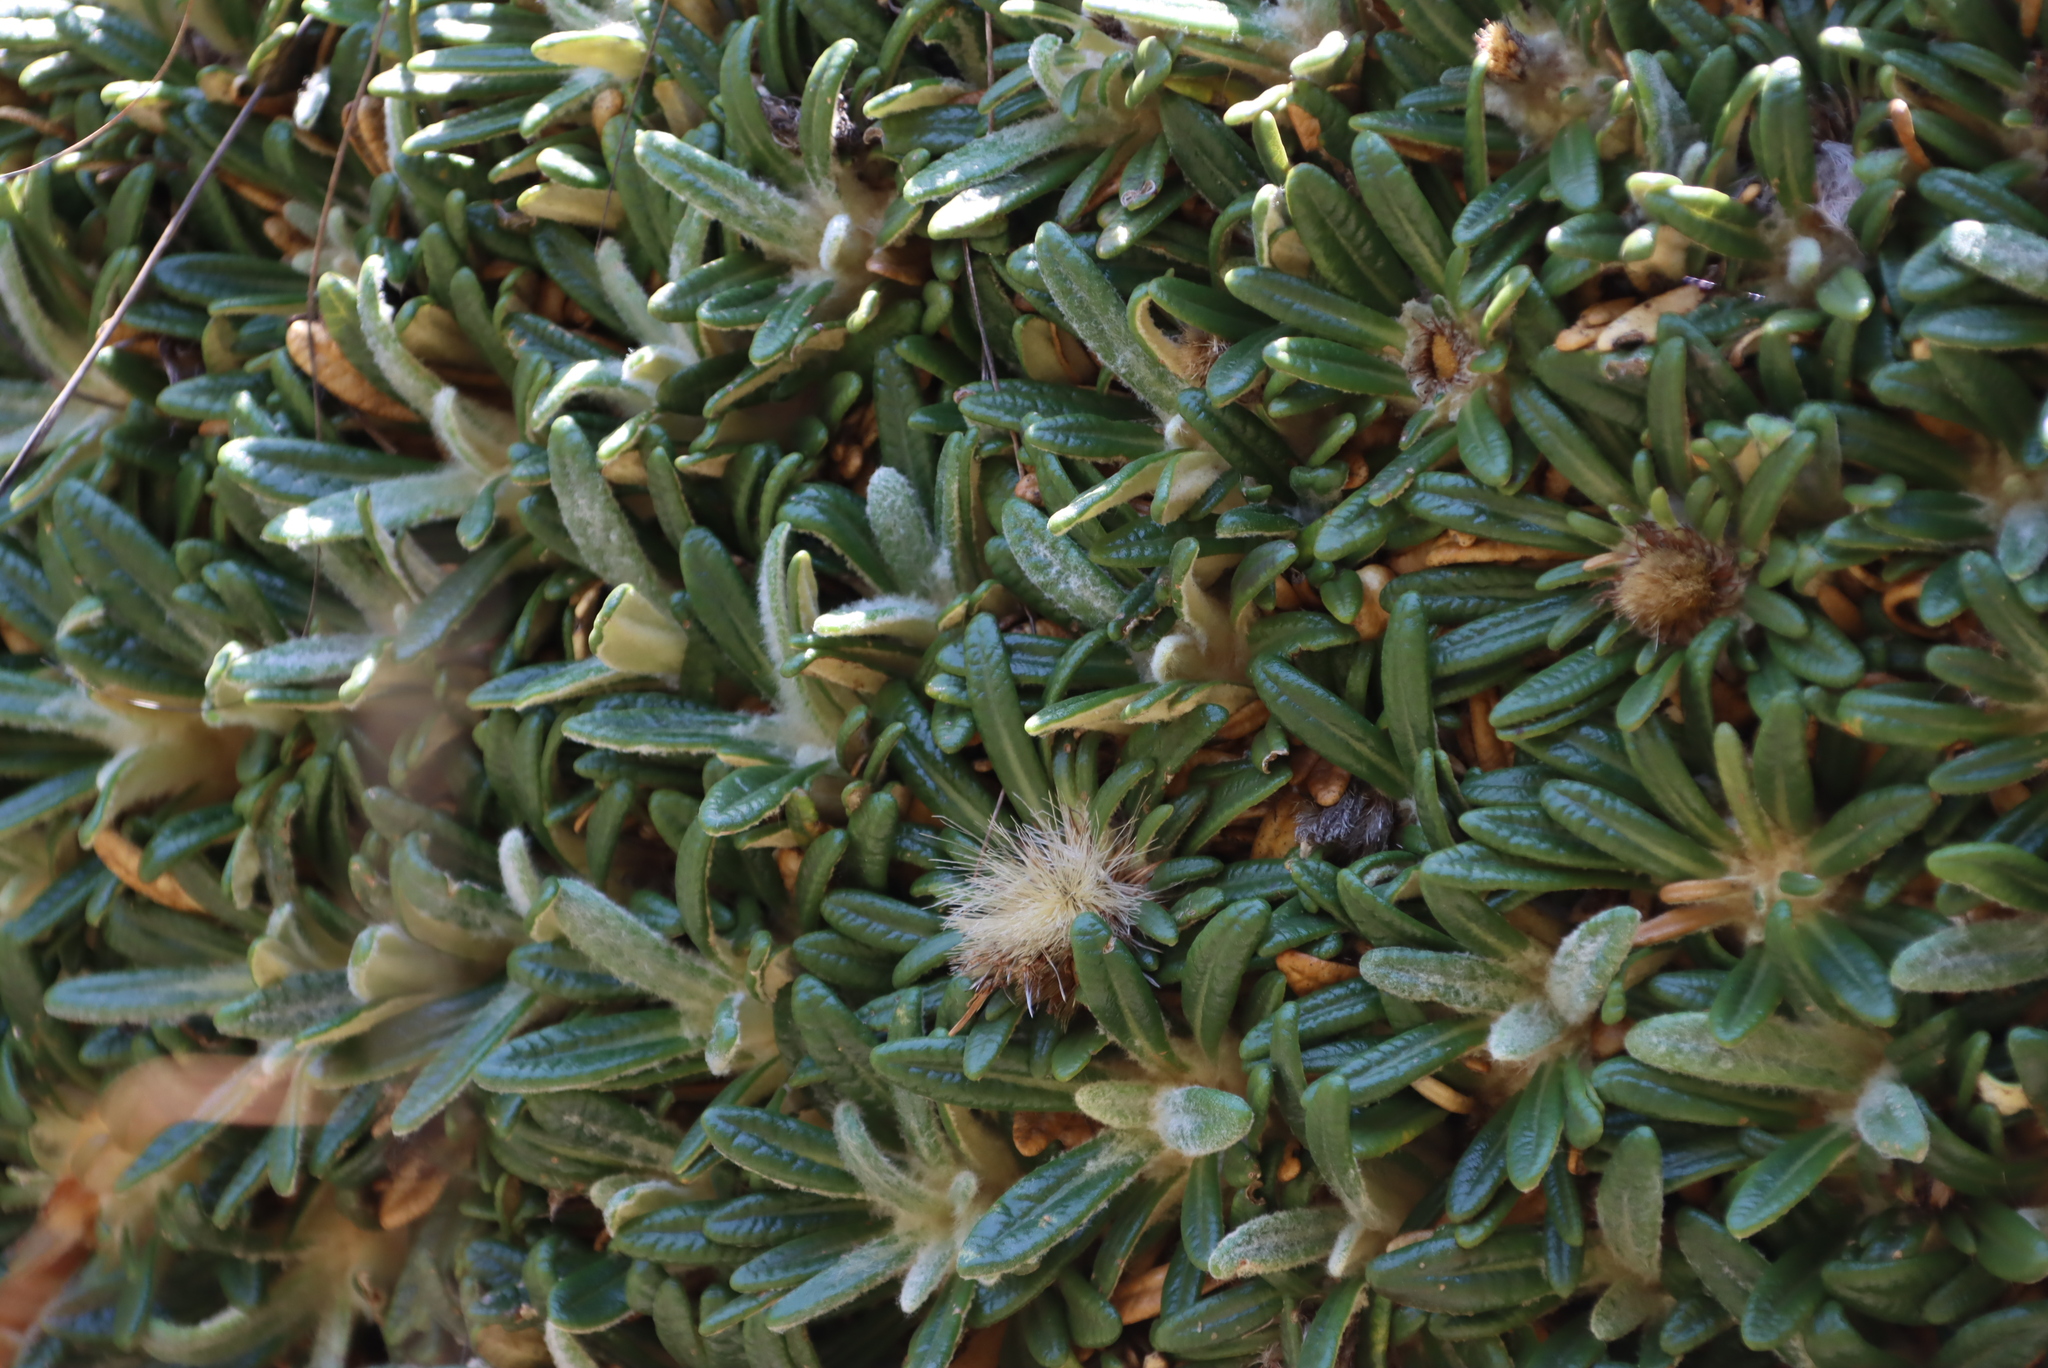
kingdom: Plantae
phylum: Tracheophyta
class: Magnoliopsida
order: Asterales
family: Asteraceae
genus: Oldenburgia
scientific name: Oldenburgia paradoxa
